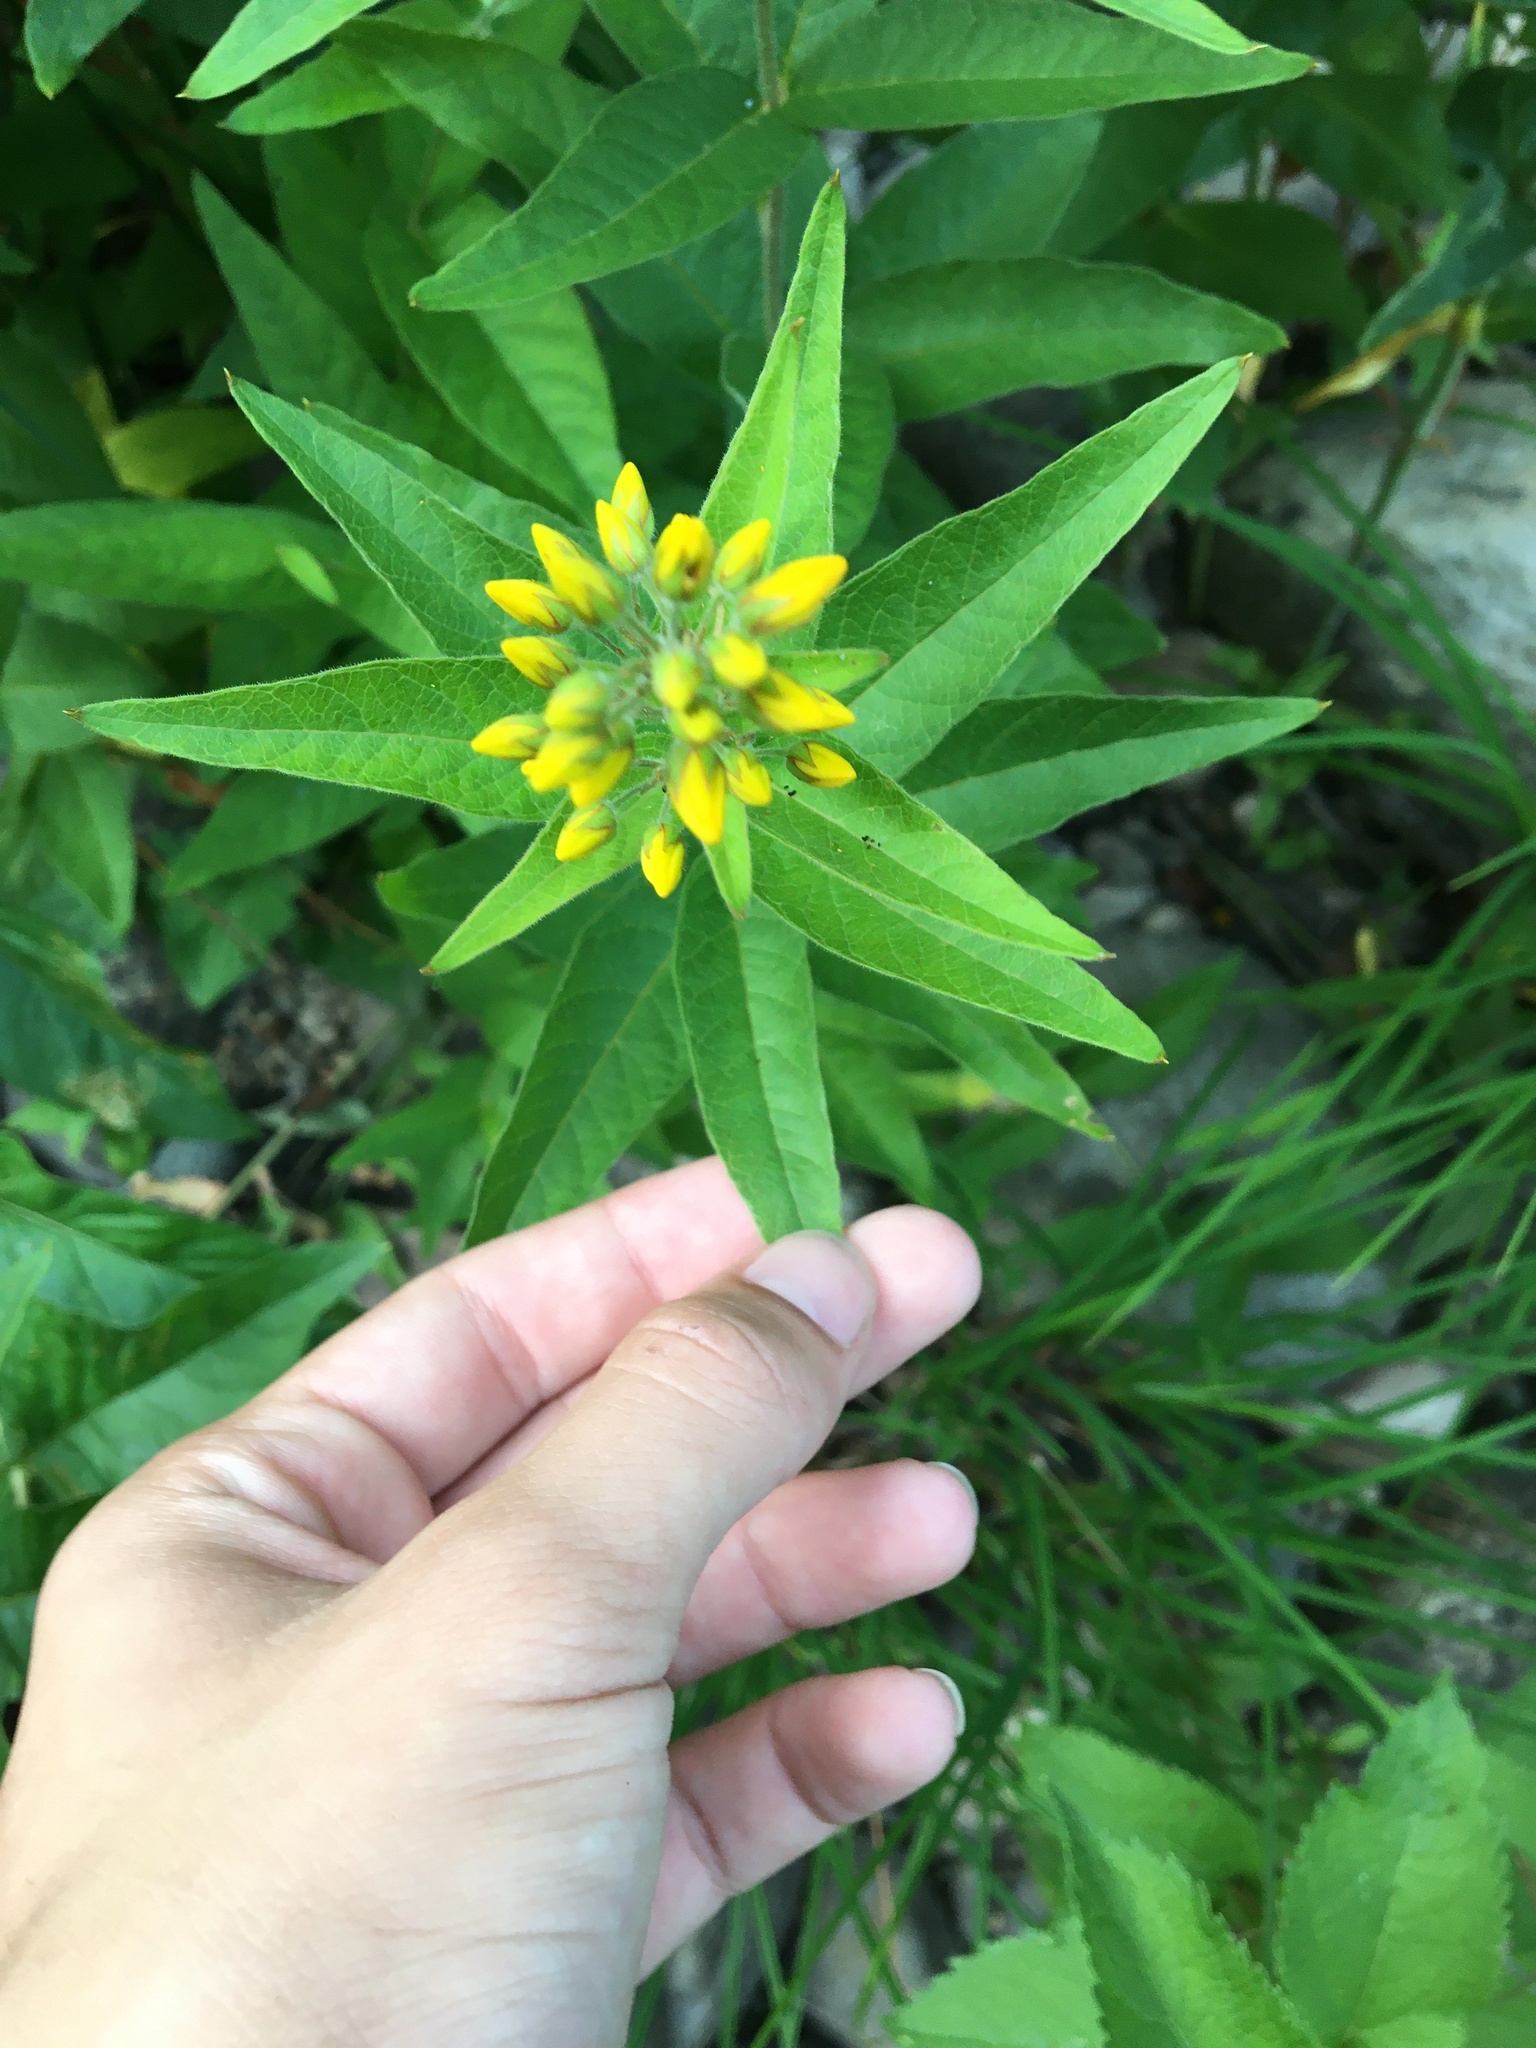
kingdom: Plantae
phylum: Tracheophyta
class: Magnoliopsida
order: Ericales
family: Primulaceae
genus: Lysimachia
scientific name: Lysimachia vulgaris
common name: Yellow loosestrife
